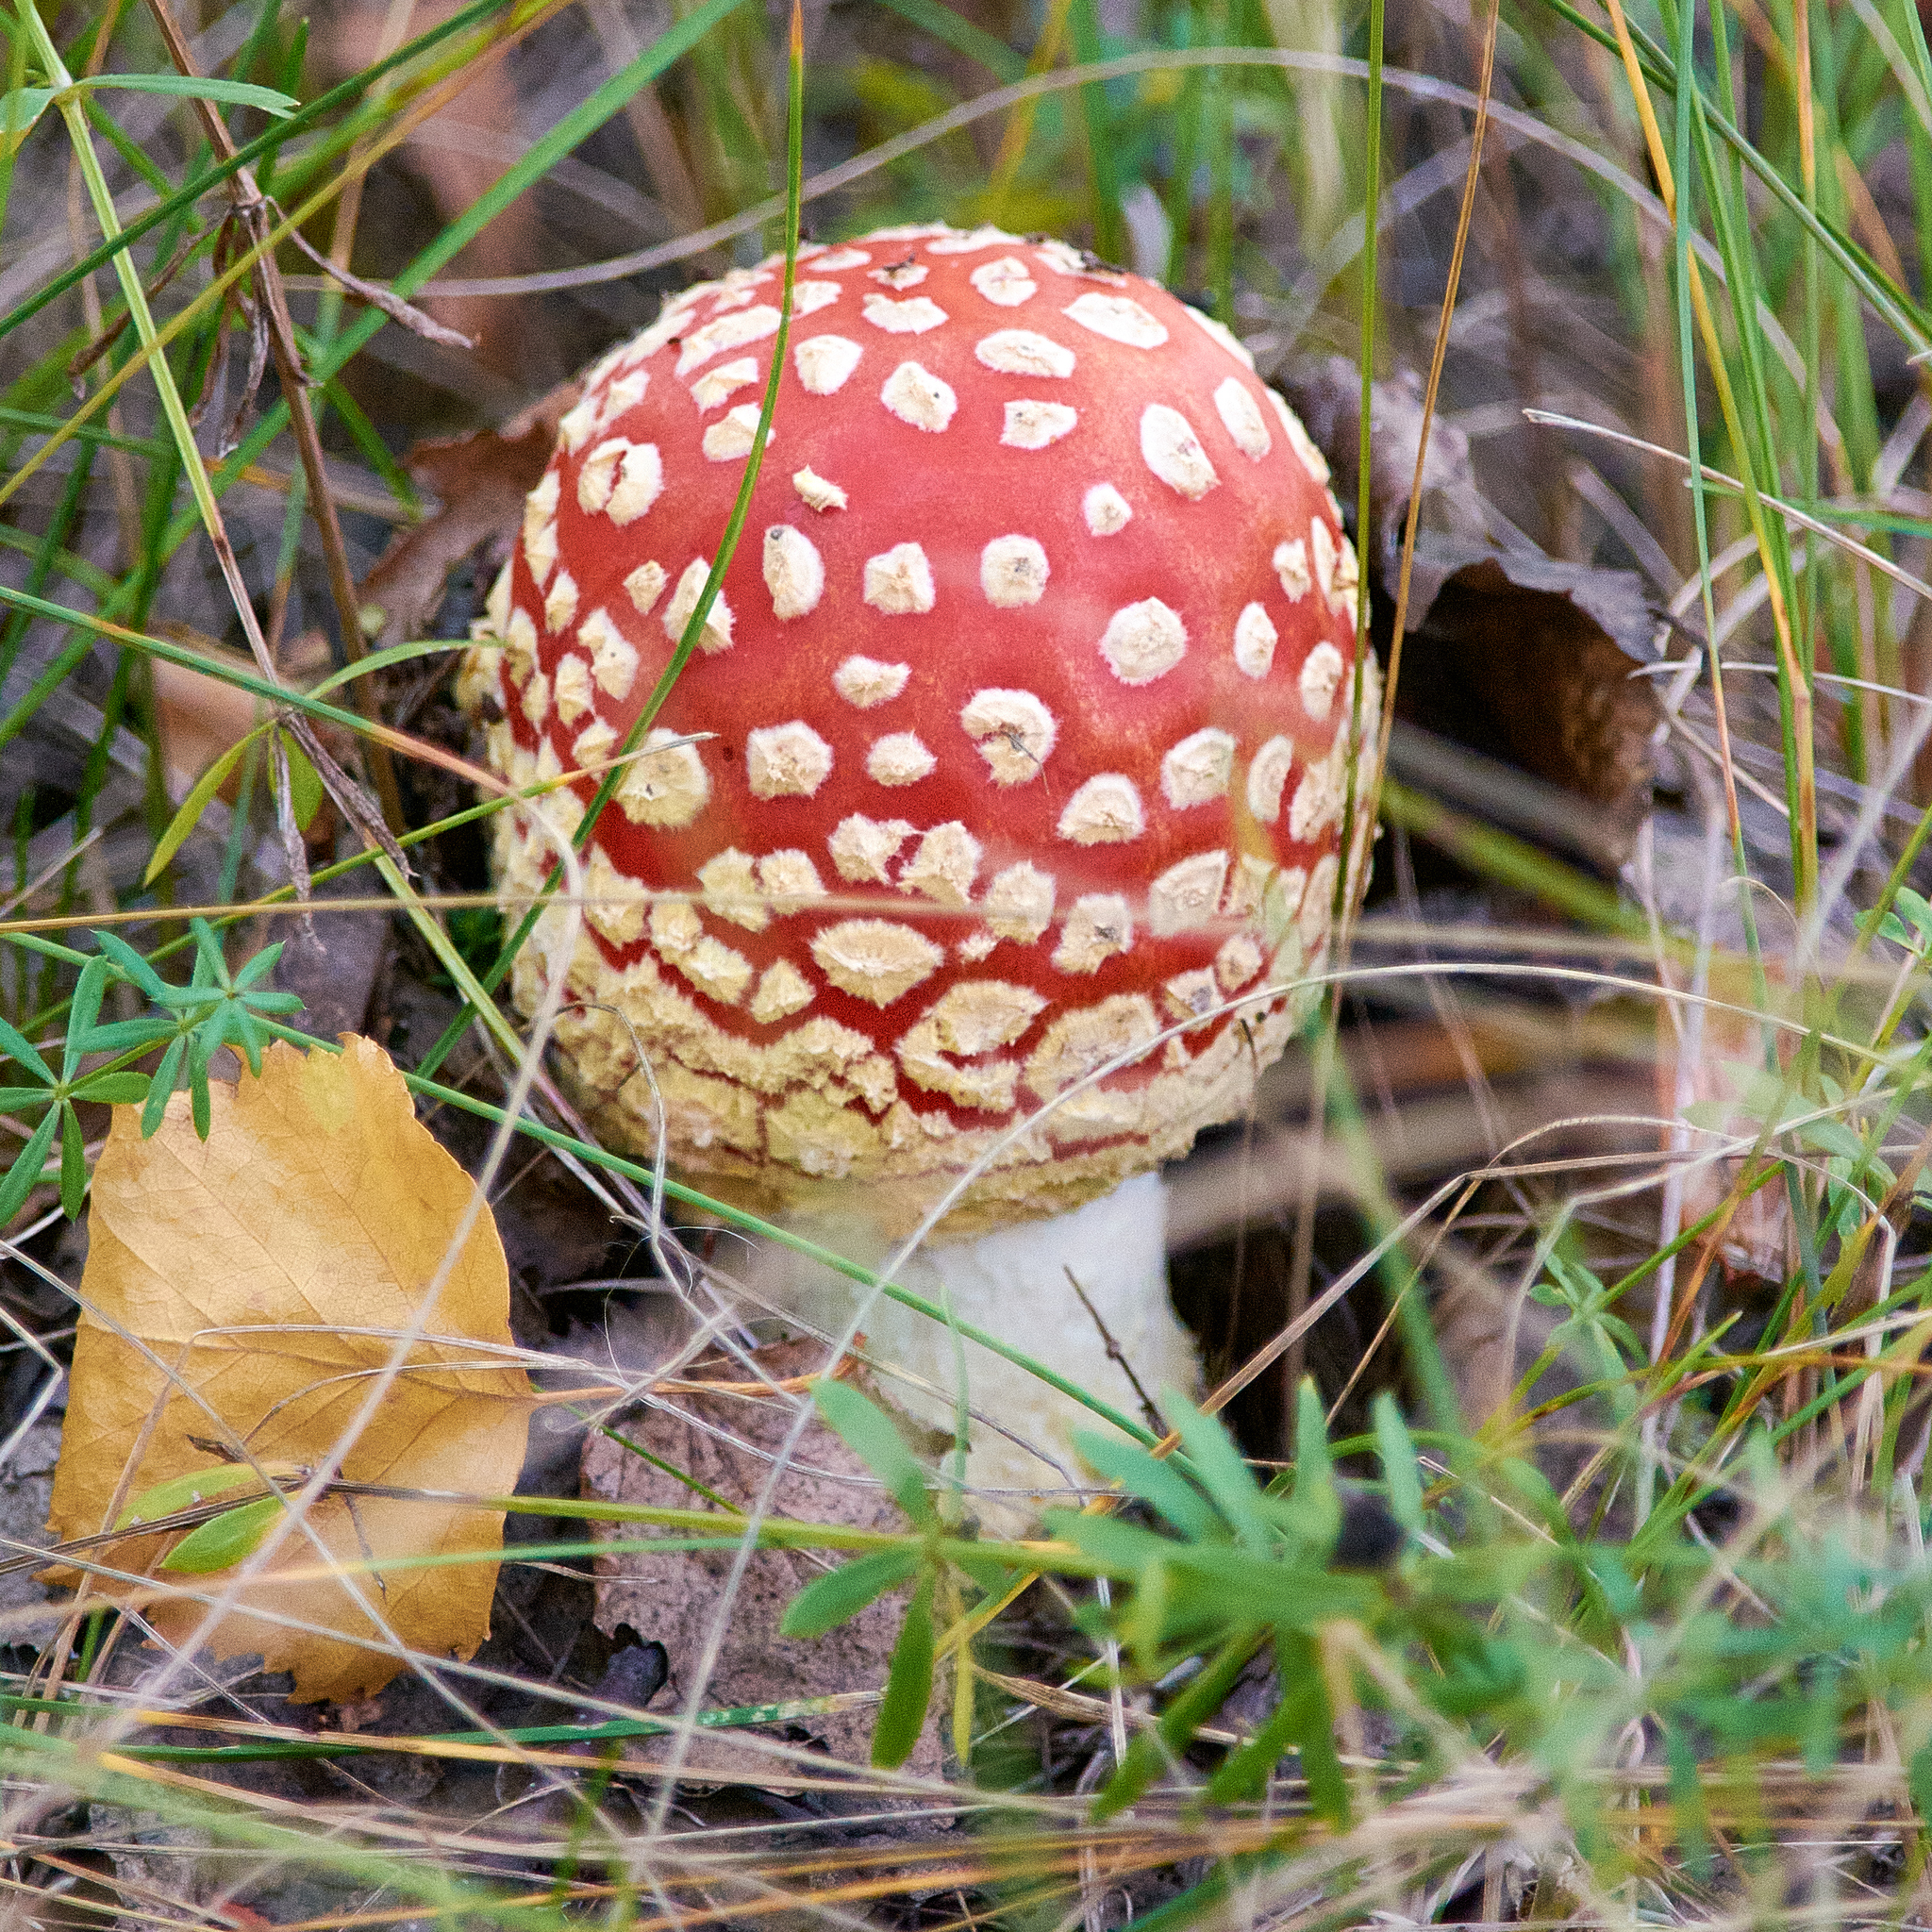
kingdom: Fungi
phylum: Basidiomycota
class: Agaricomycetes
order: Agaricales
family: Amanitaceae
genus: Amanita
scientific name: Amanita muscaria
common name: Fly agaric
